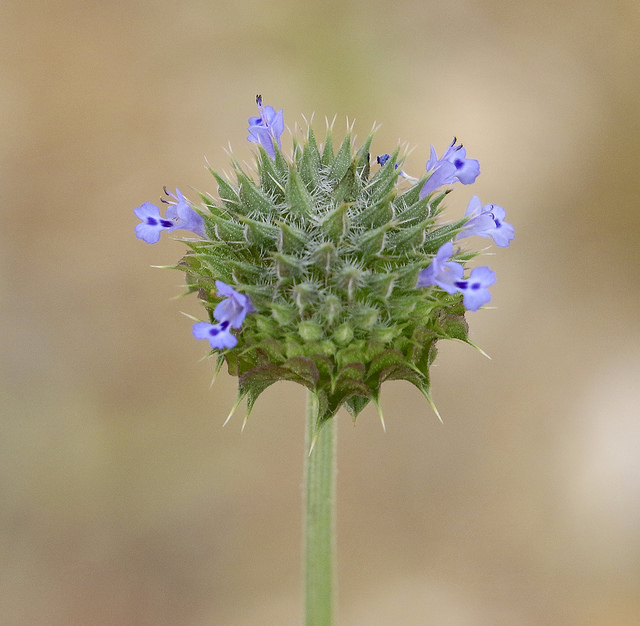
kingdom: Plantae
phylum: Tracheophyta
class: Magnoliopsida
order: Lamiales
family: Lamiaceae
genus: Salvia
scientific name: Salvia columbariae
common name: Chia
